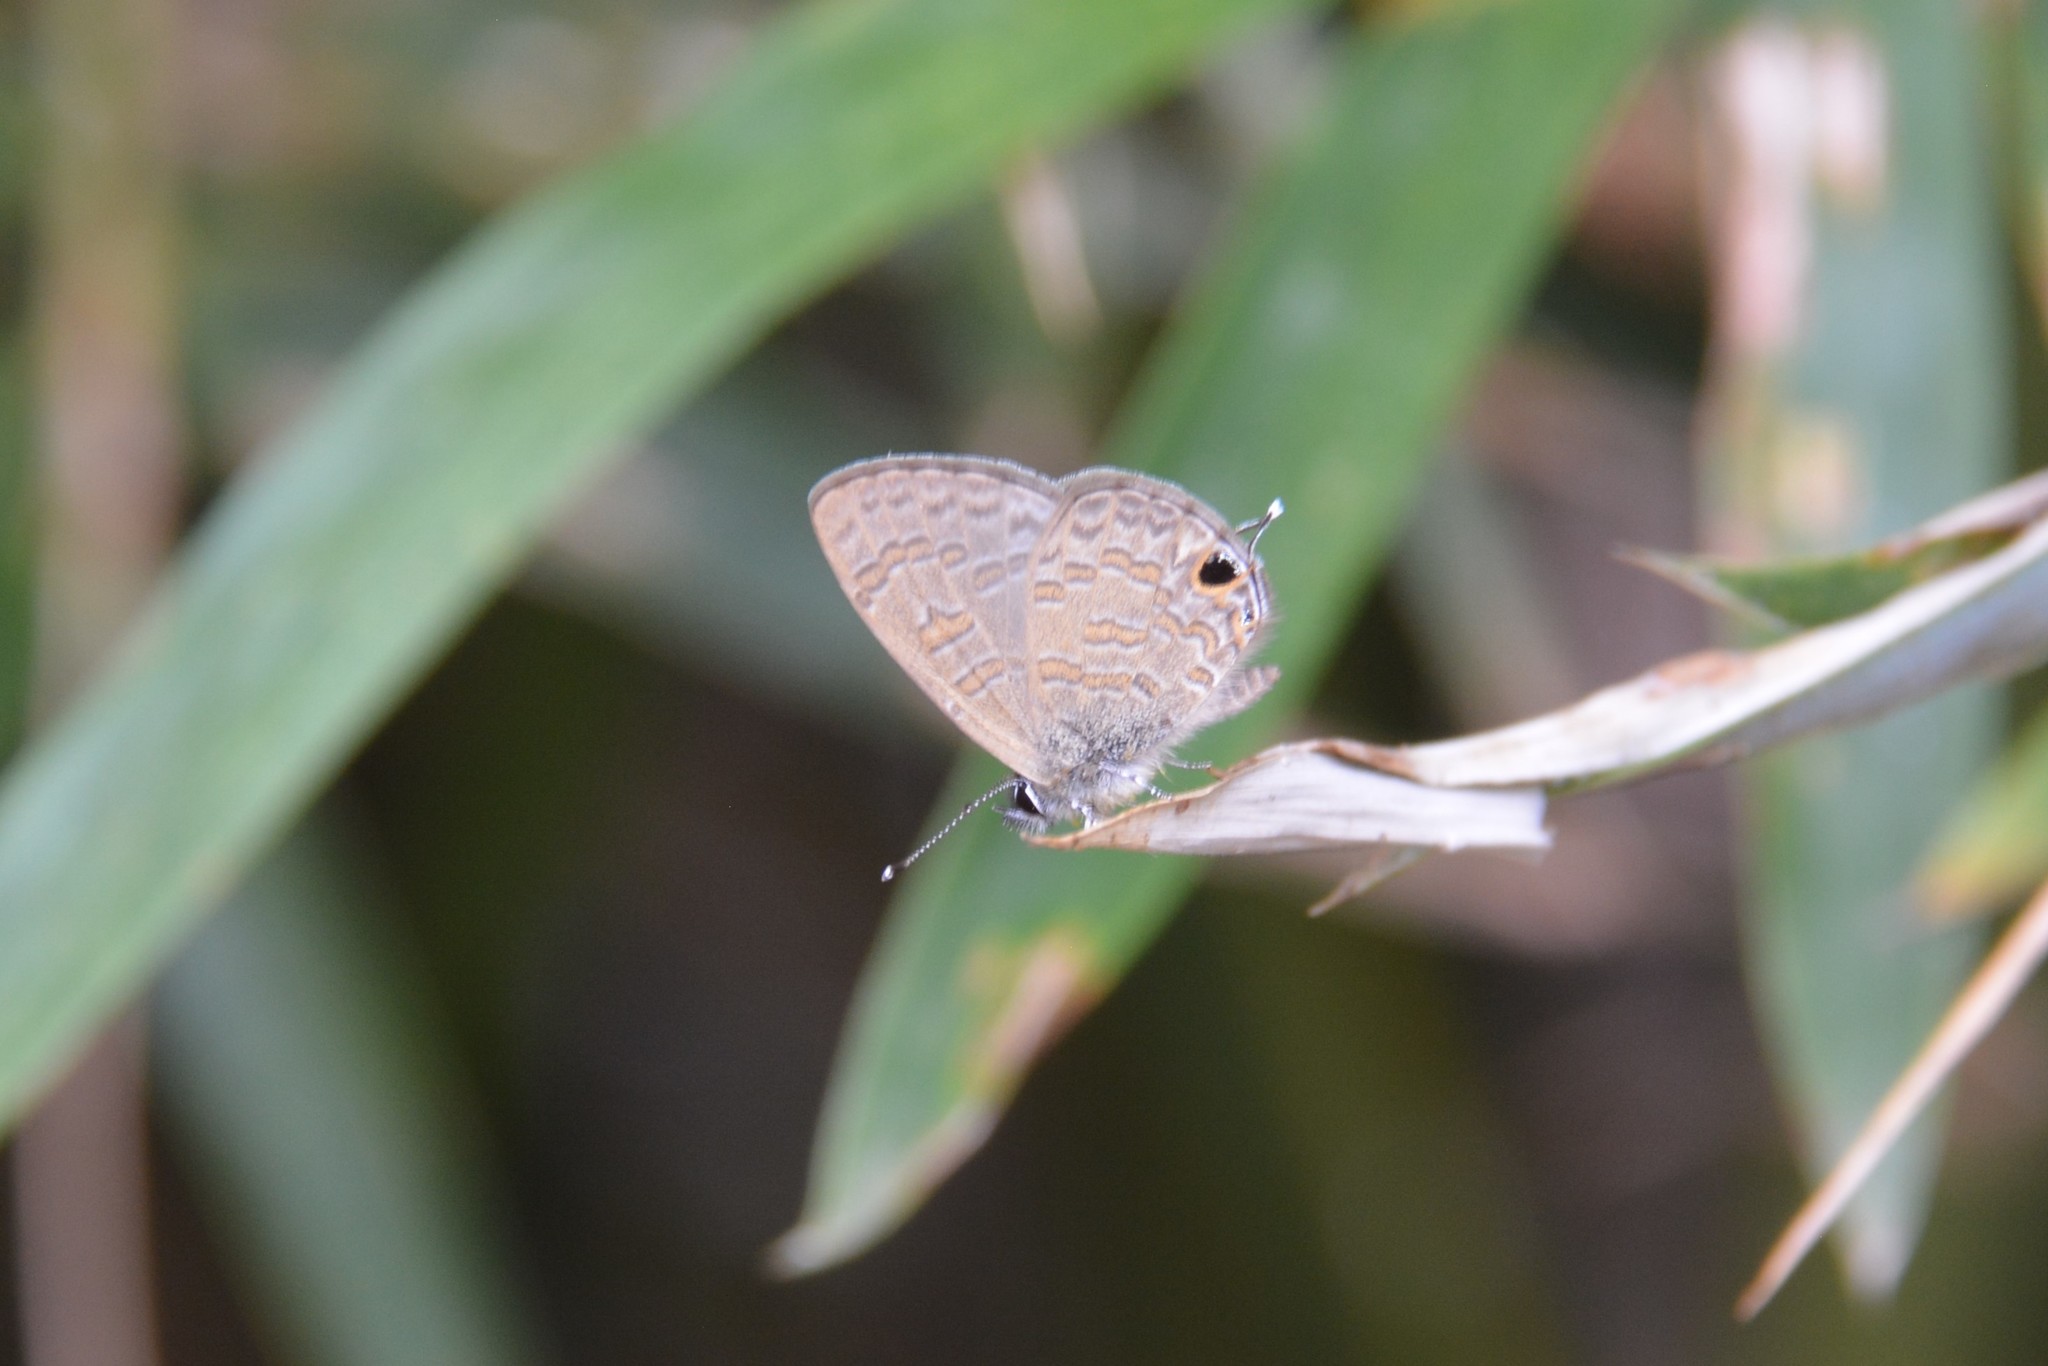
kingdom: Animalia
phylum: Arthropoda
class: Insecta
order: Lepidoptera
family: Lycaenidae
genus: Prosotas
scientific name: Prosotas nora
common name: Common line blue
